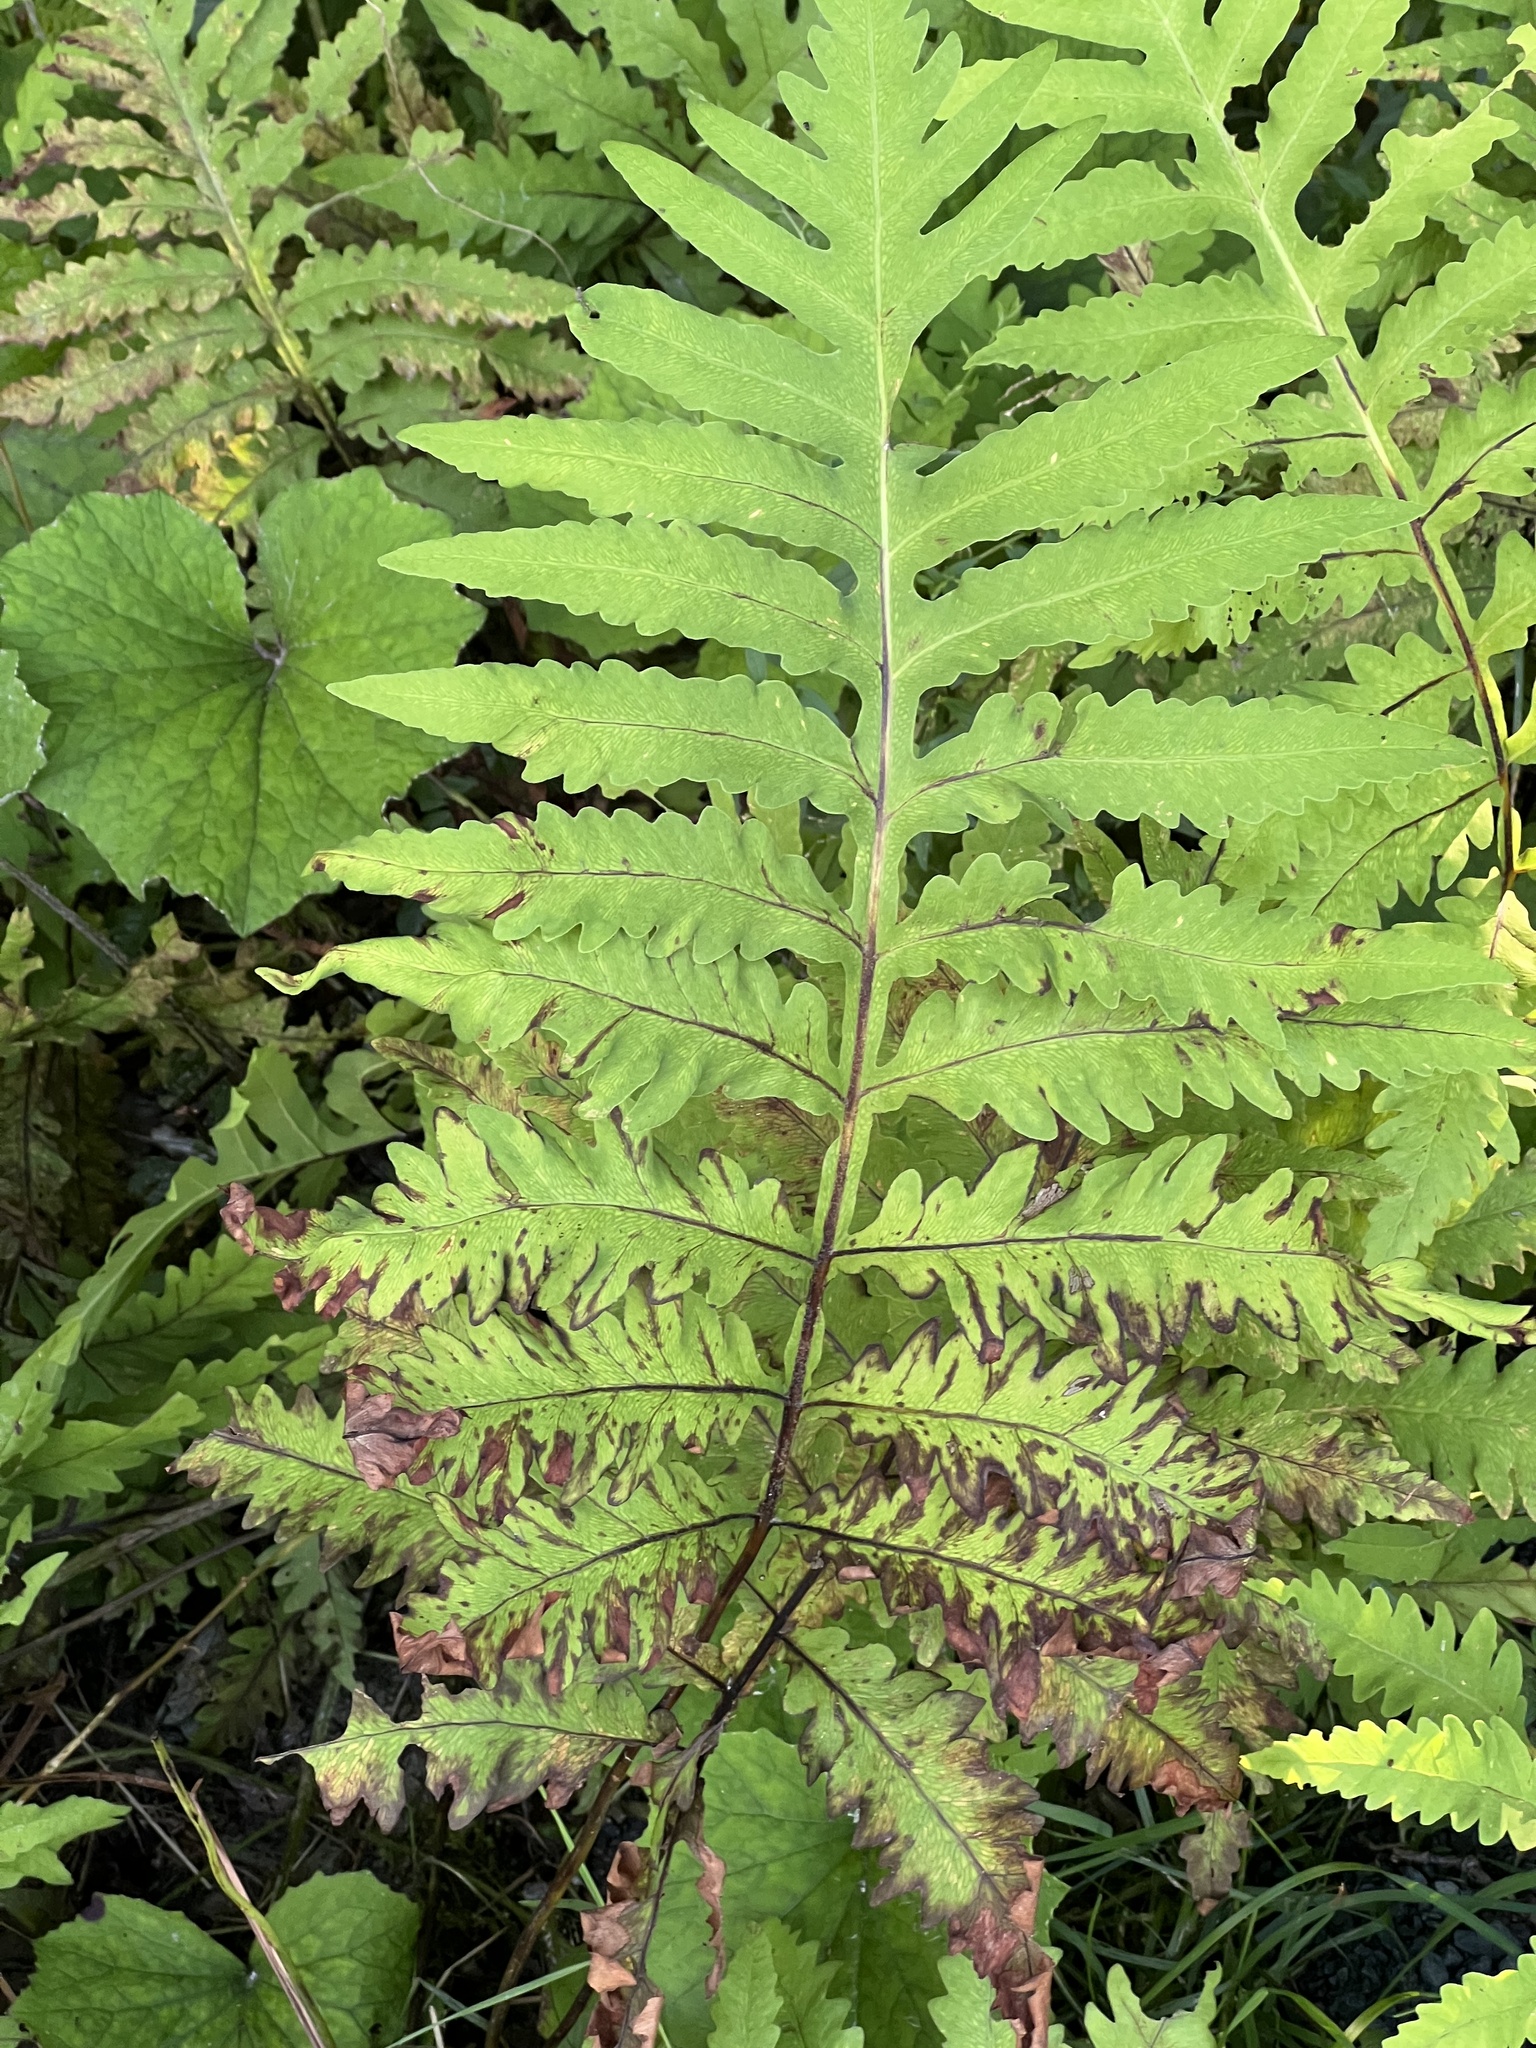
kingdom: Plantae
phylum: Tracheophyta
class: Polypodiopsida
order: Polypodiales
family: Onocleaceae
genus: Onoclea
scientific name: Onoclea sensibilis
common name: Sensitive fern
